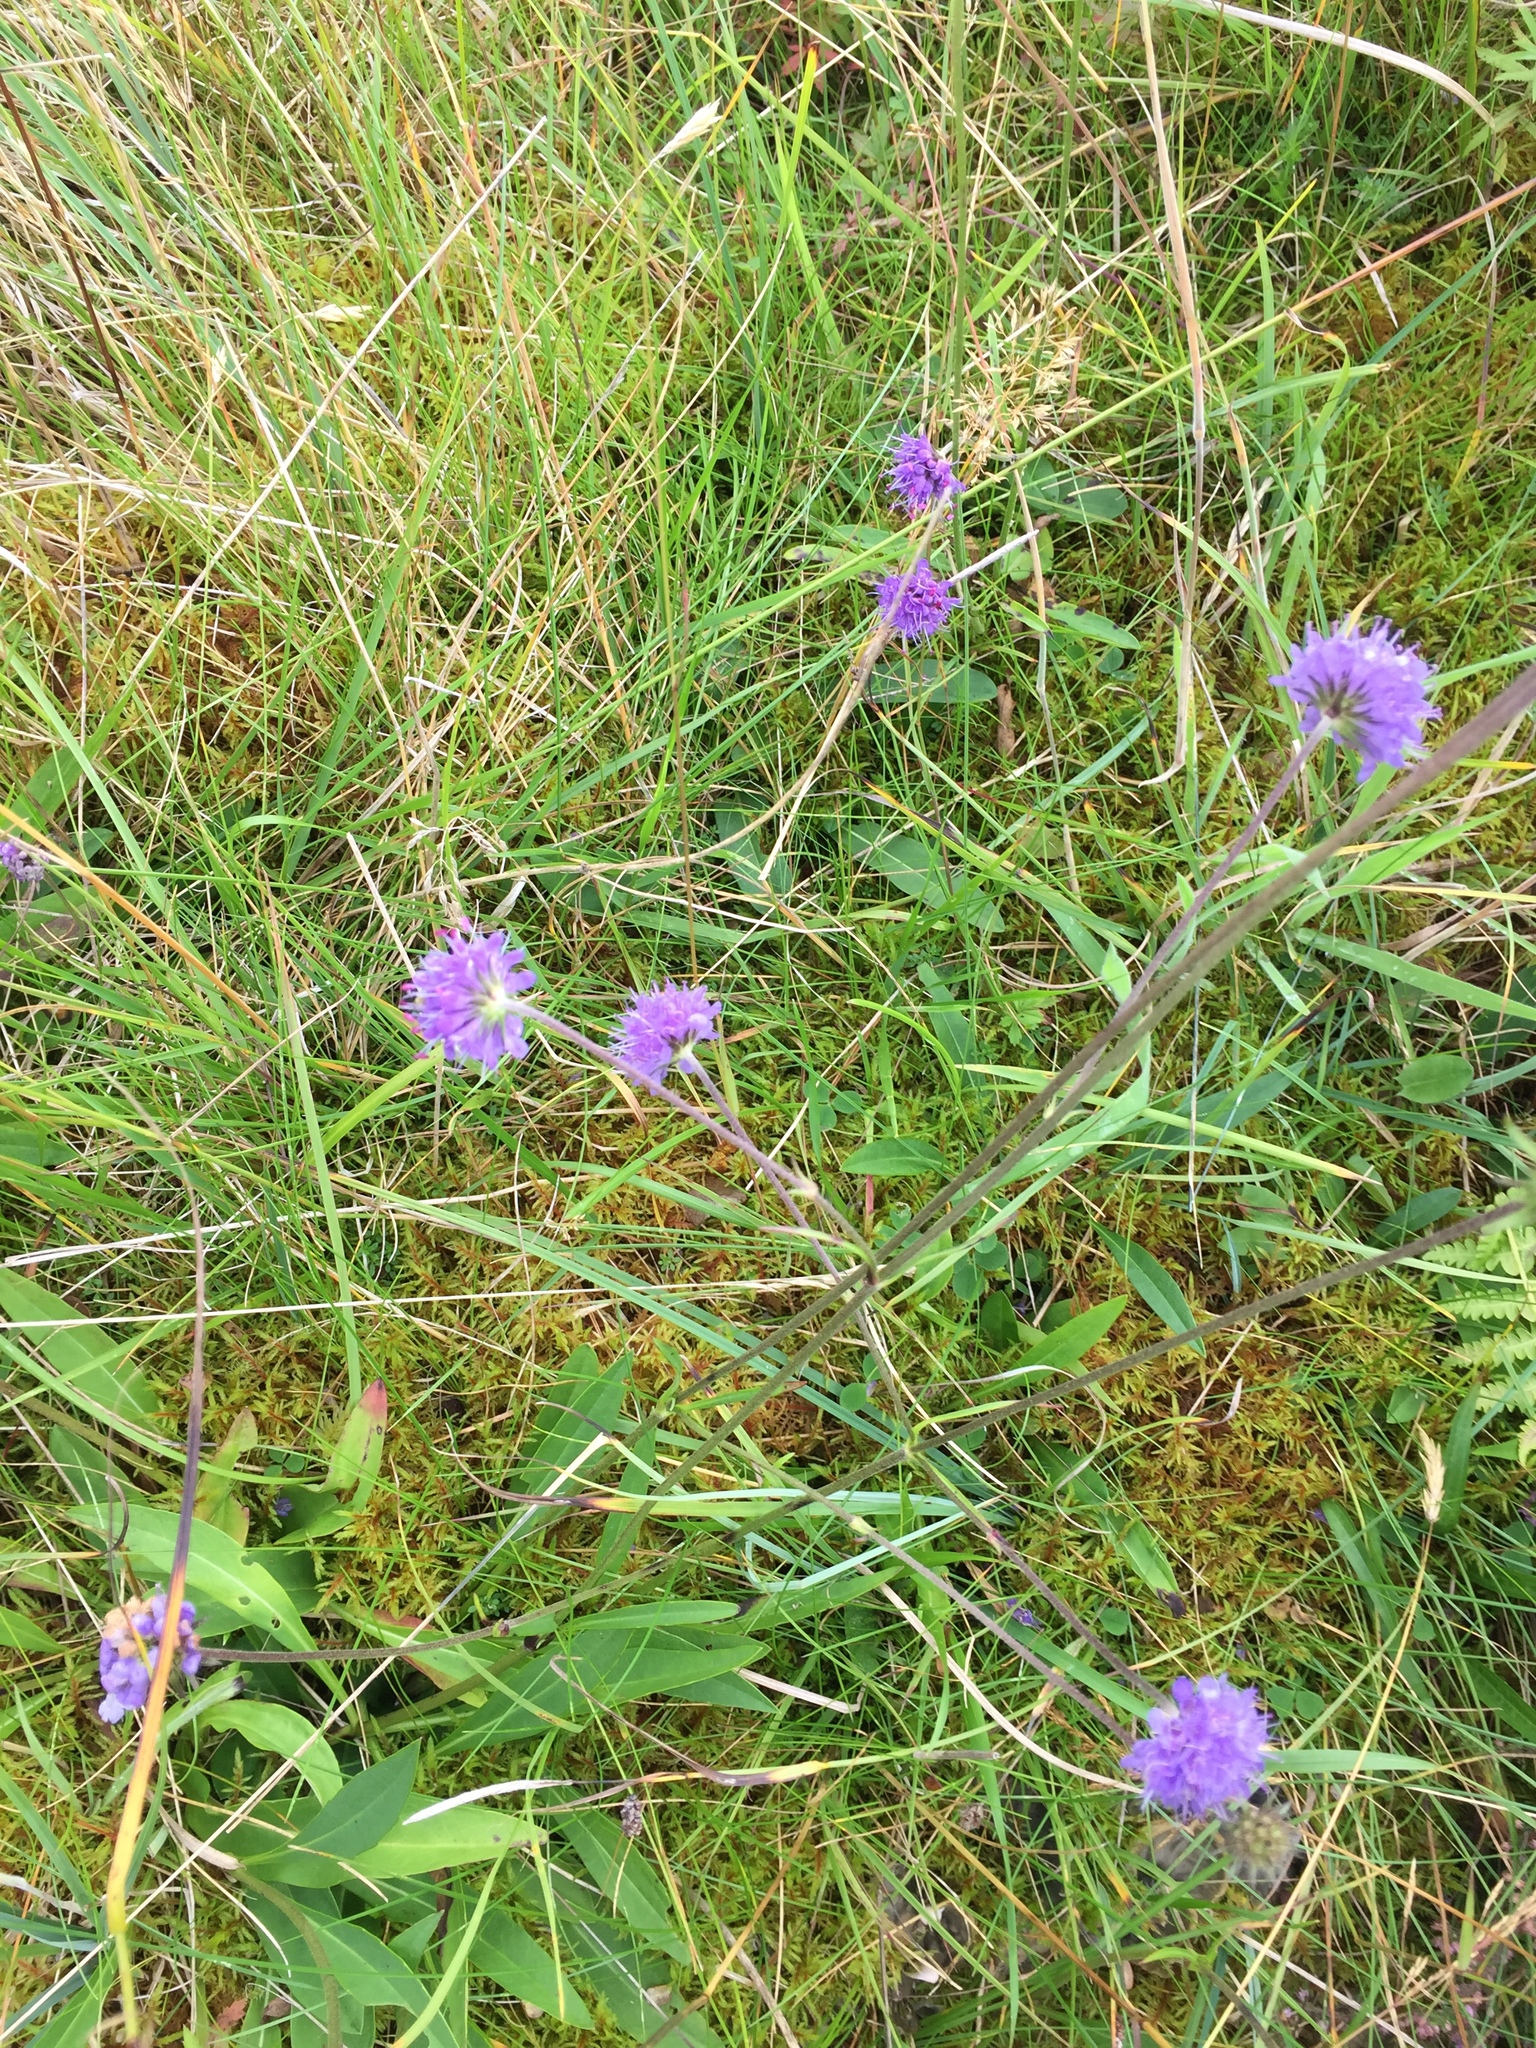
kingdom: Plantae
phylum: Tracheophyta
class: Magnoliopsida
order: Dipsacales
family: Caprifoliaceae
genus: Succisa
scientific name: Succisa pratensis
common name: Devil's-bit
